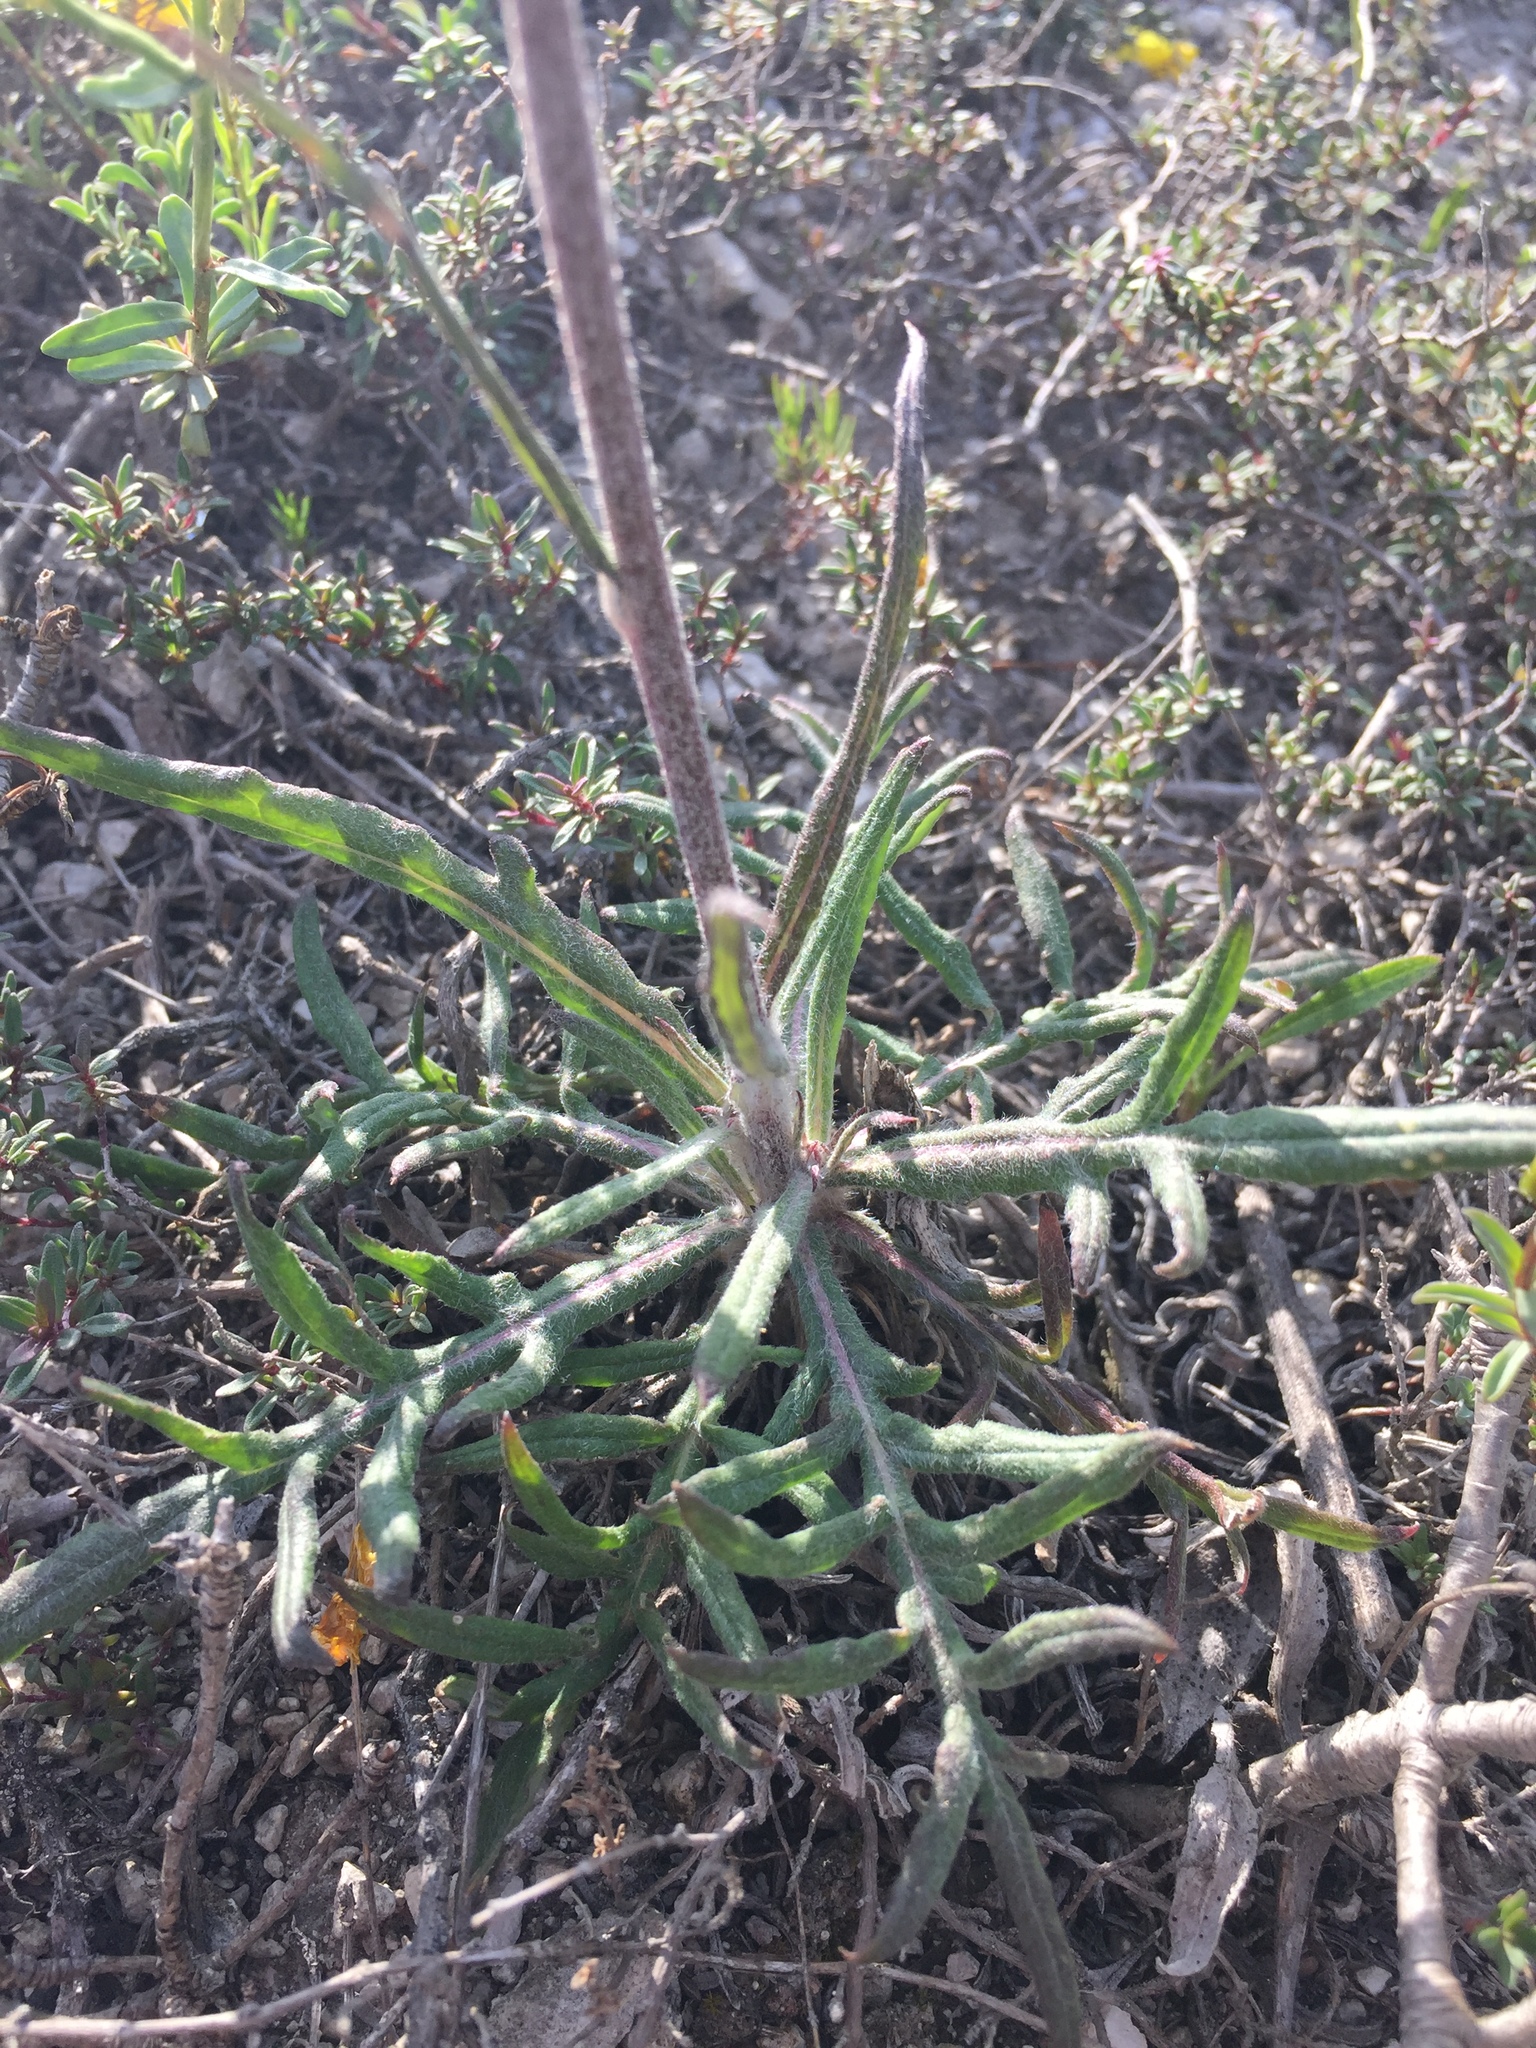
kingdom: Plantae
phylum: Tracheophyta
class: Magnoliopsida
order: Asterales
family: Asteraceae
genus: Jurinea
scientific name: Jurinea ledebourii
